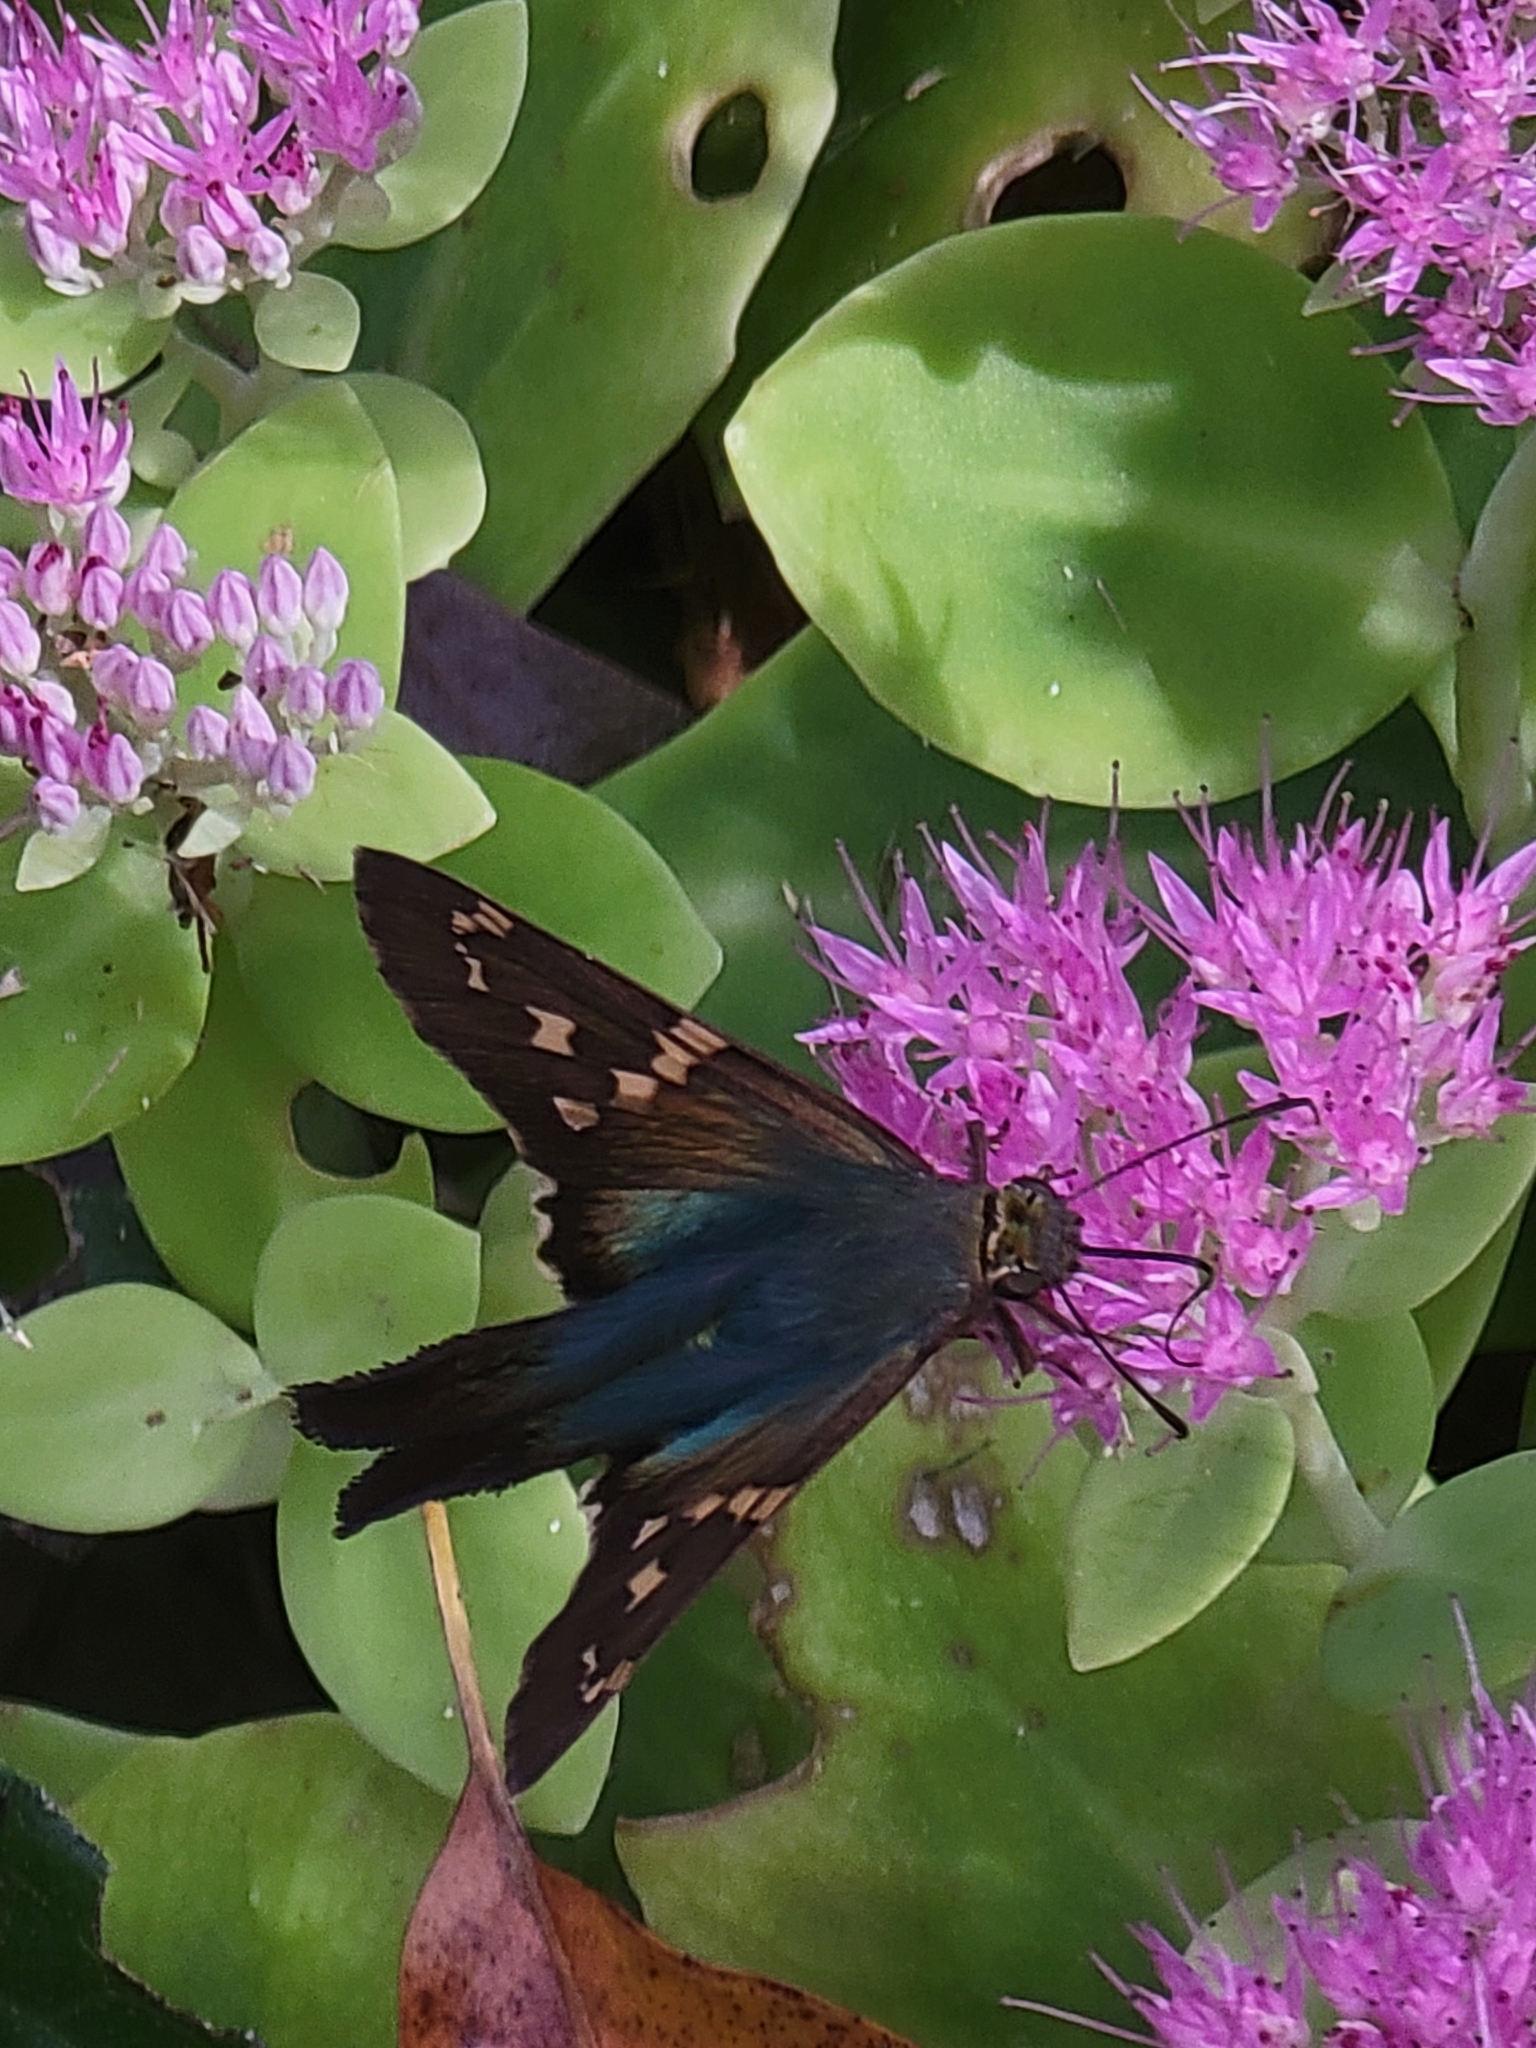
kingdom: Animalia
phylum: Arthropoda
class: Insecta
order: Lepidoptera
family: Hesperiidae
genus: Urbanus
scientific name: Urbanus proteus
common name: Long-tailed skipper
